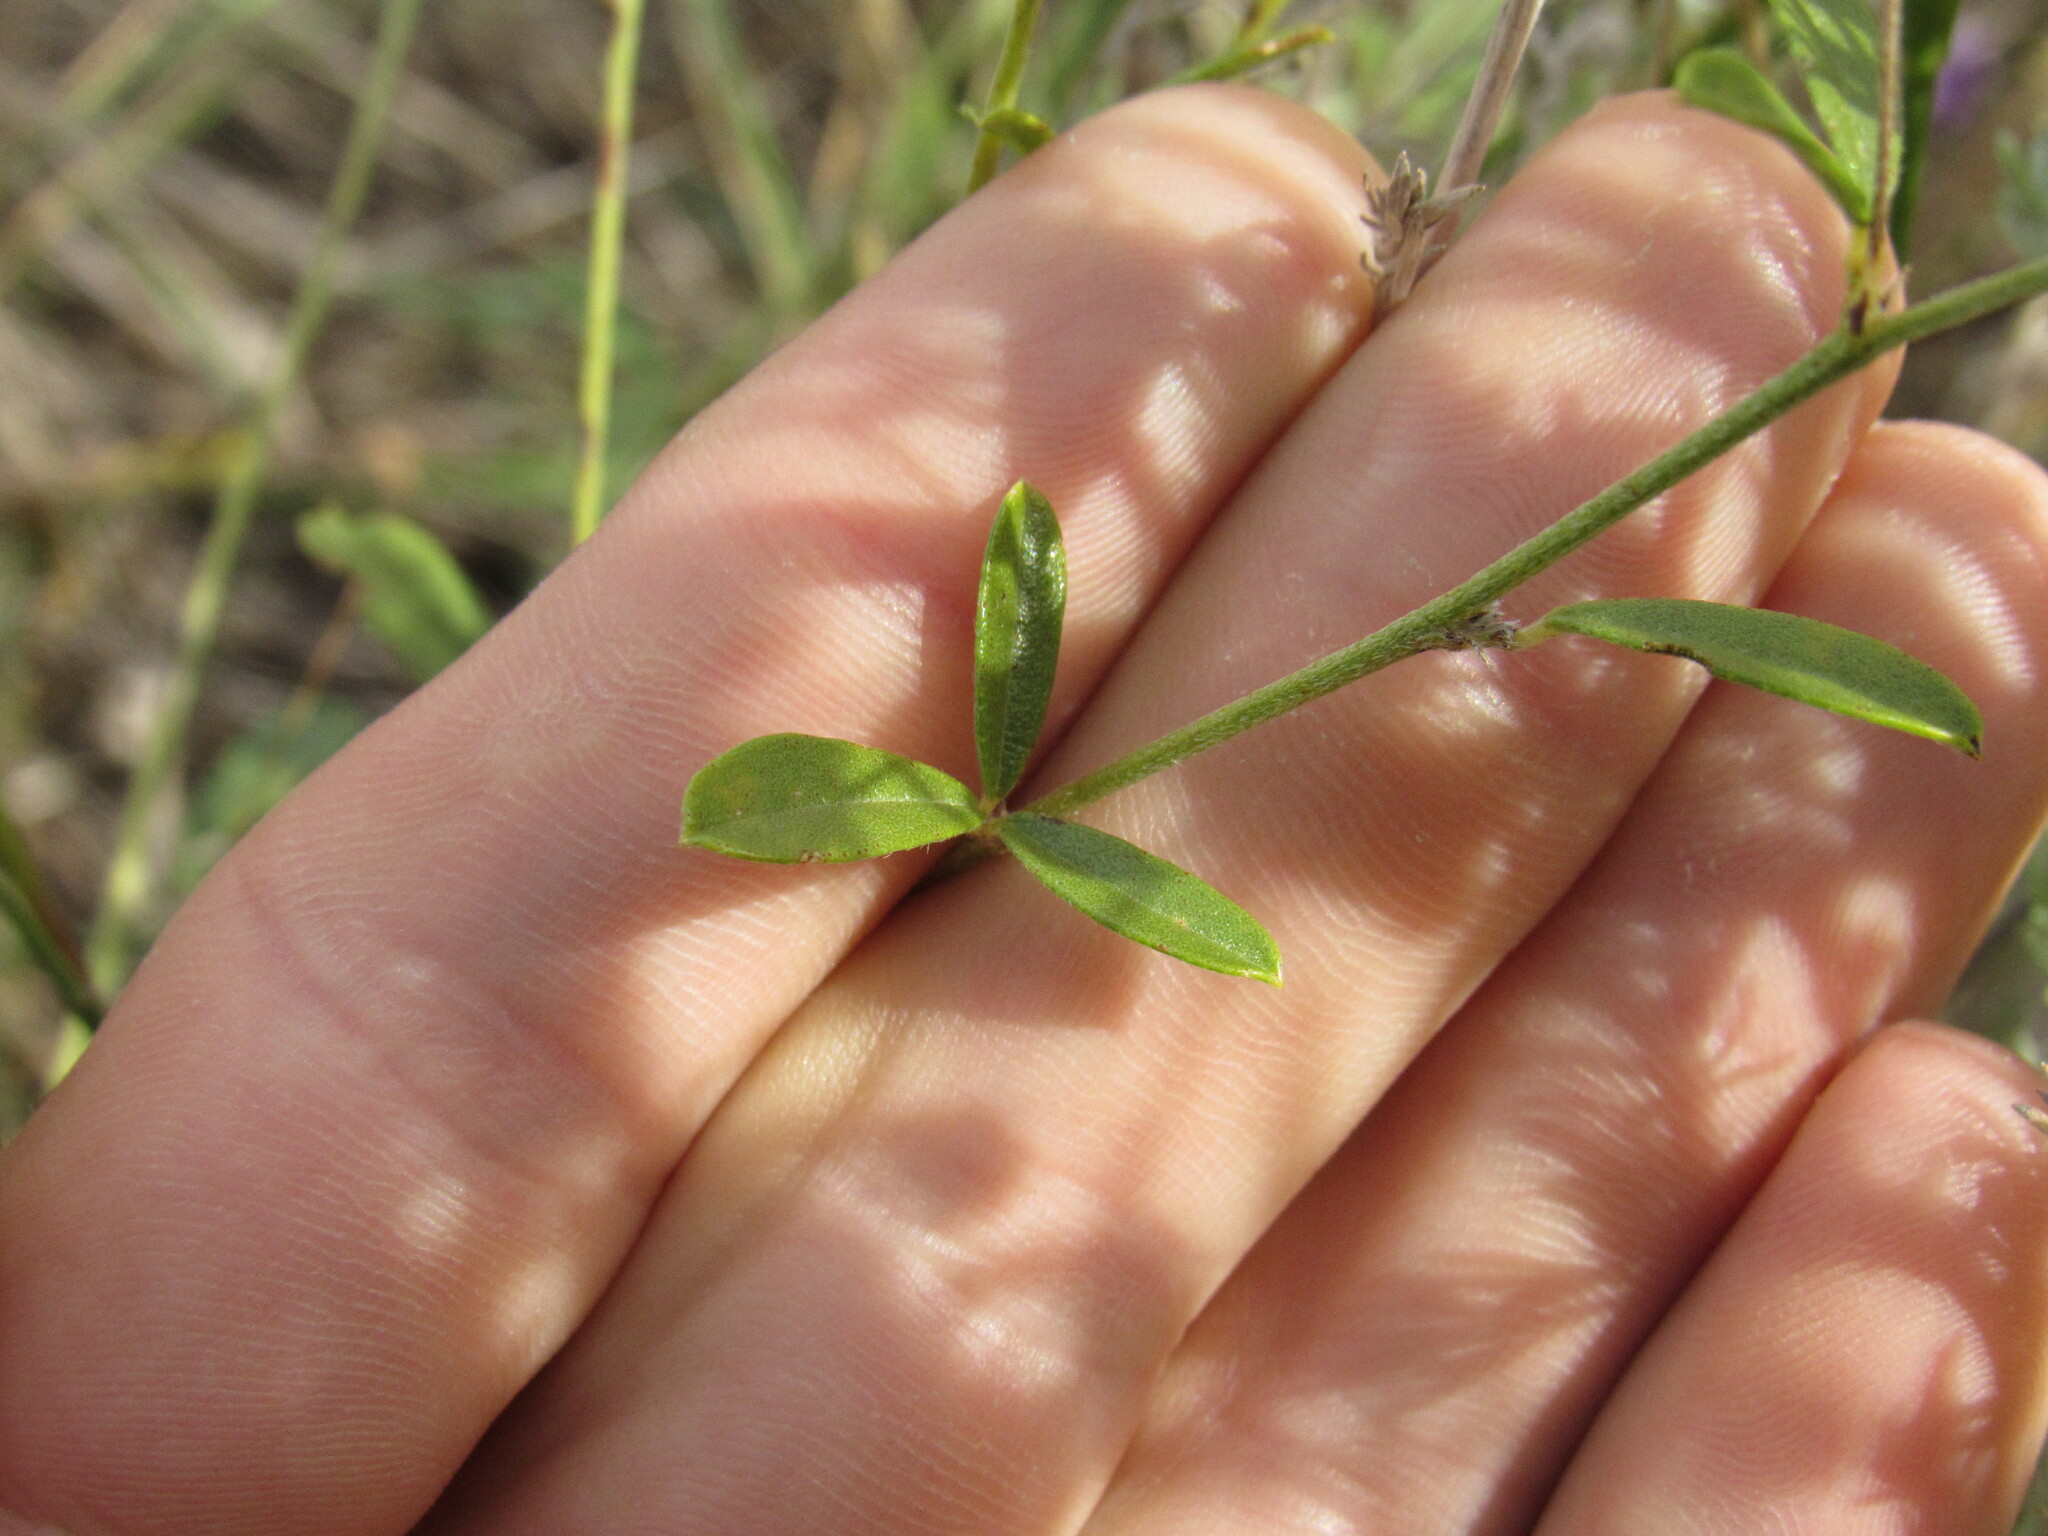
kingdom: Plantae
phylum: Tracheophyta
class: Magnoliopsida
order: Fabales
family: Fabaceae
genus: Pediomelum
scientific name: Pediomelum tenuiflorum
